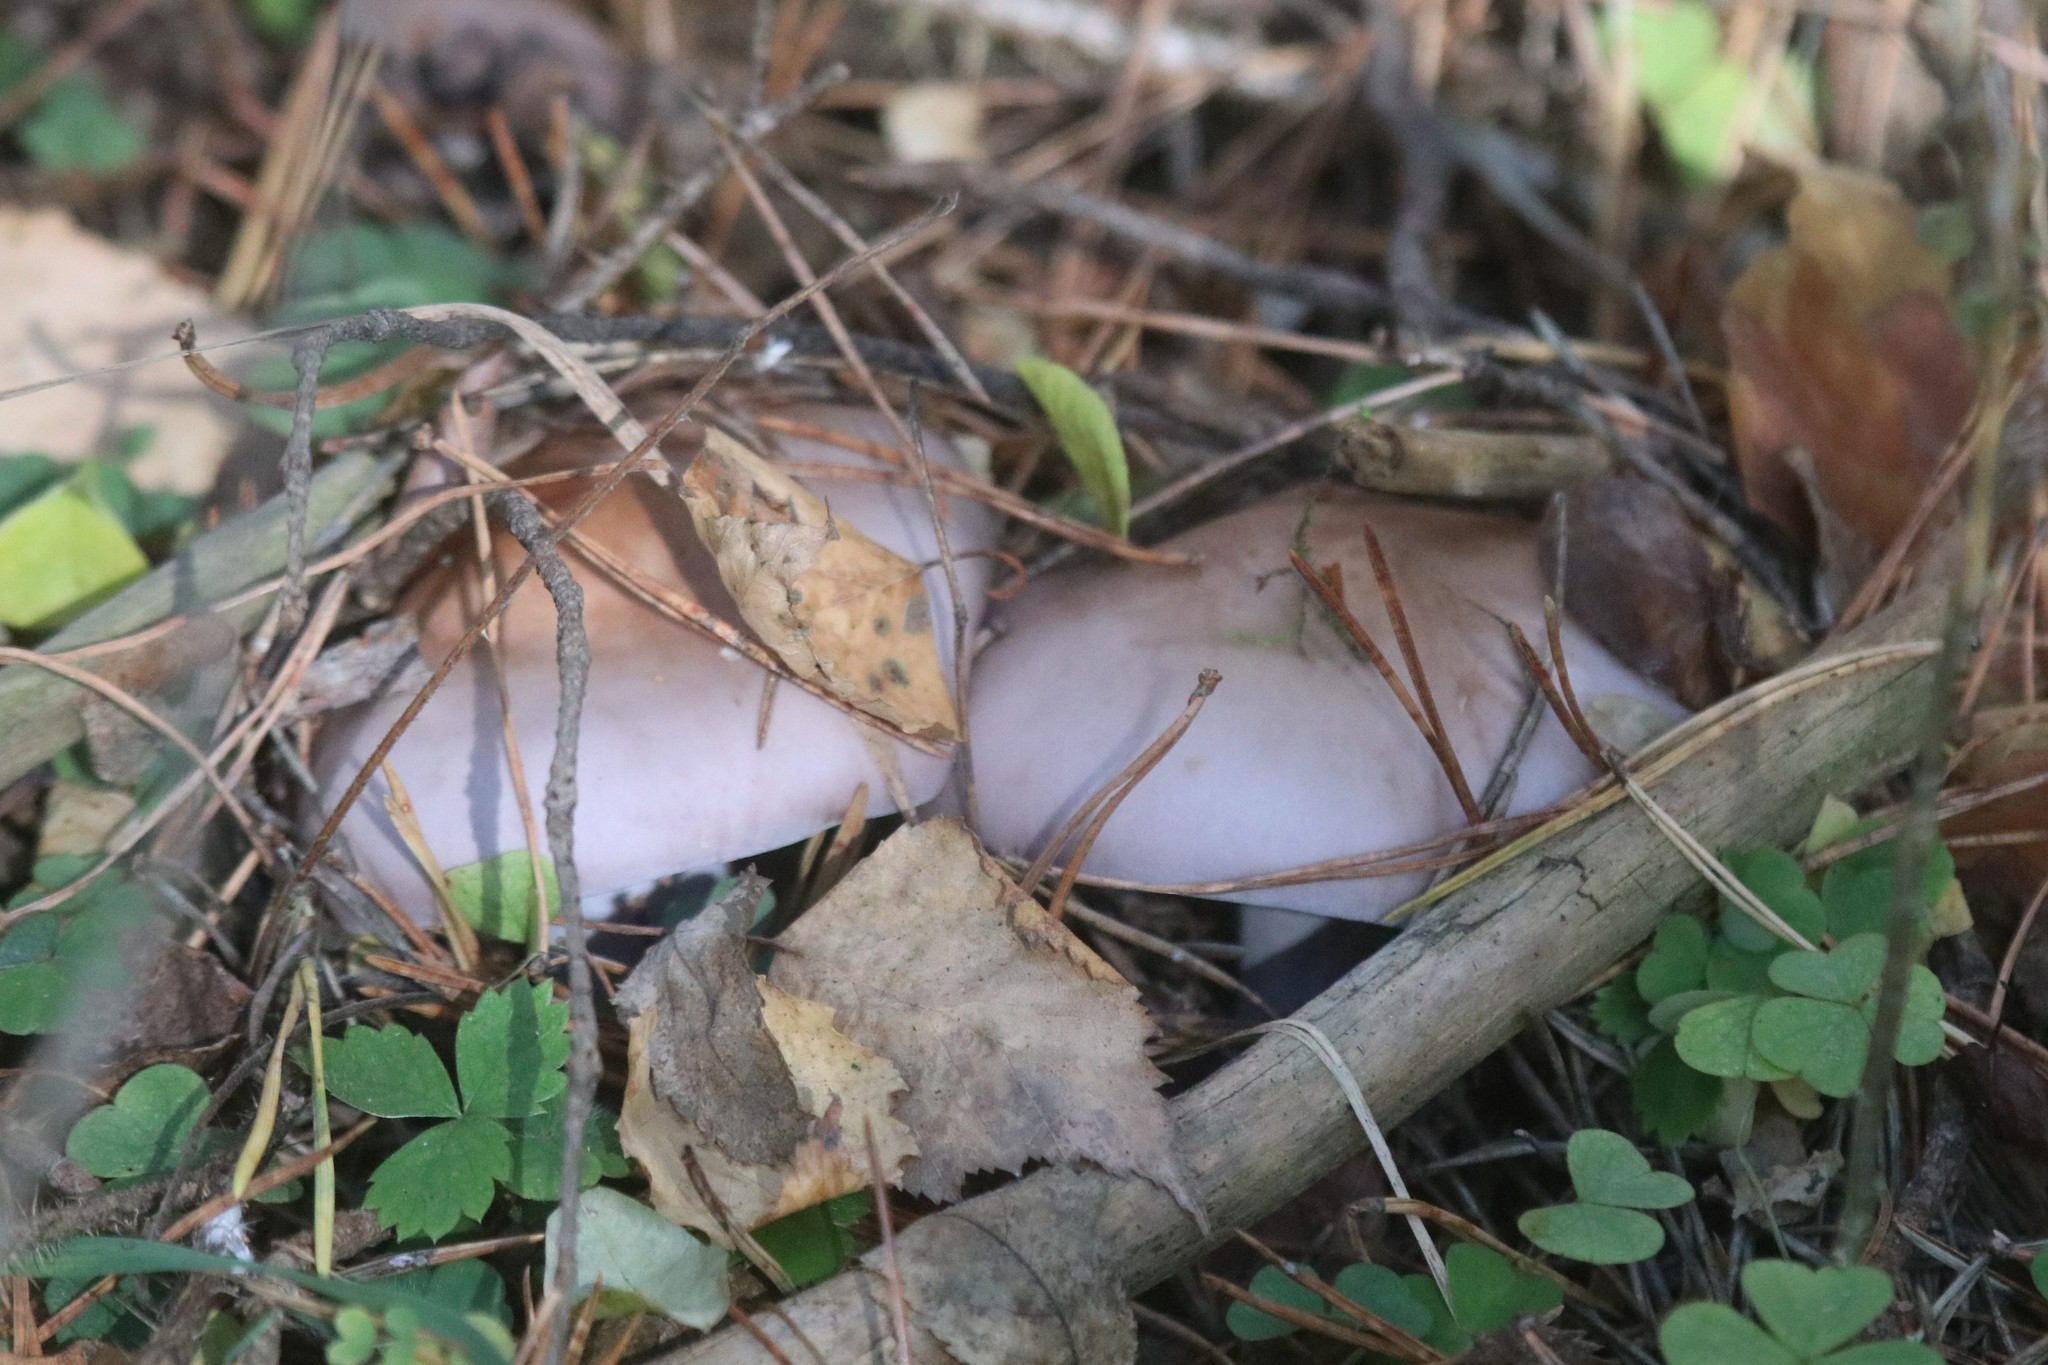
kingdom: Fungi
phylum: Basidiomycota
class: Agaricomycetes
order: Agaricales
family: Tricholomataceae
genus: Collybia
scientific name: Collybia
